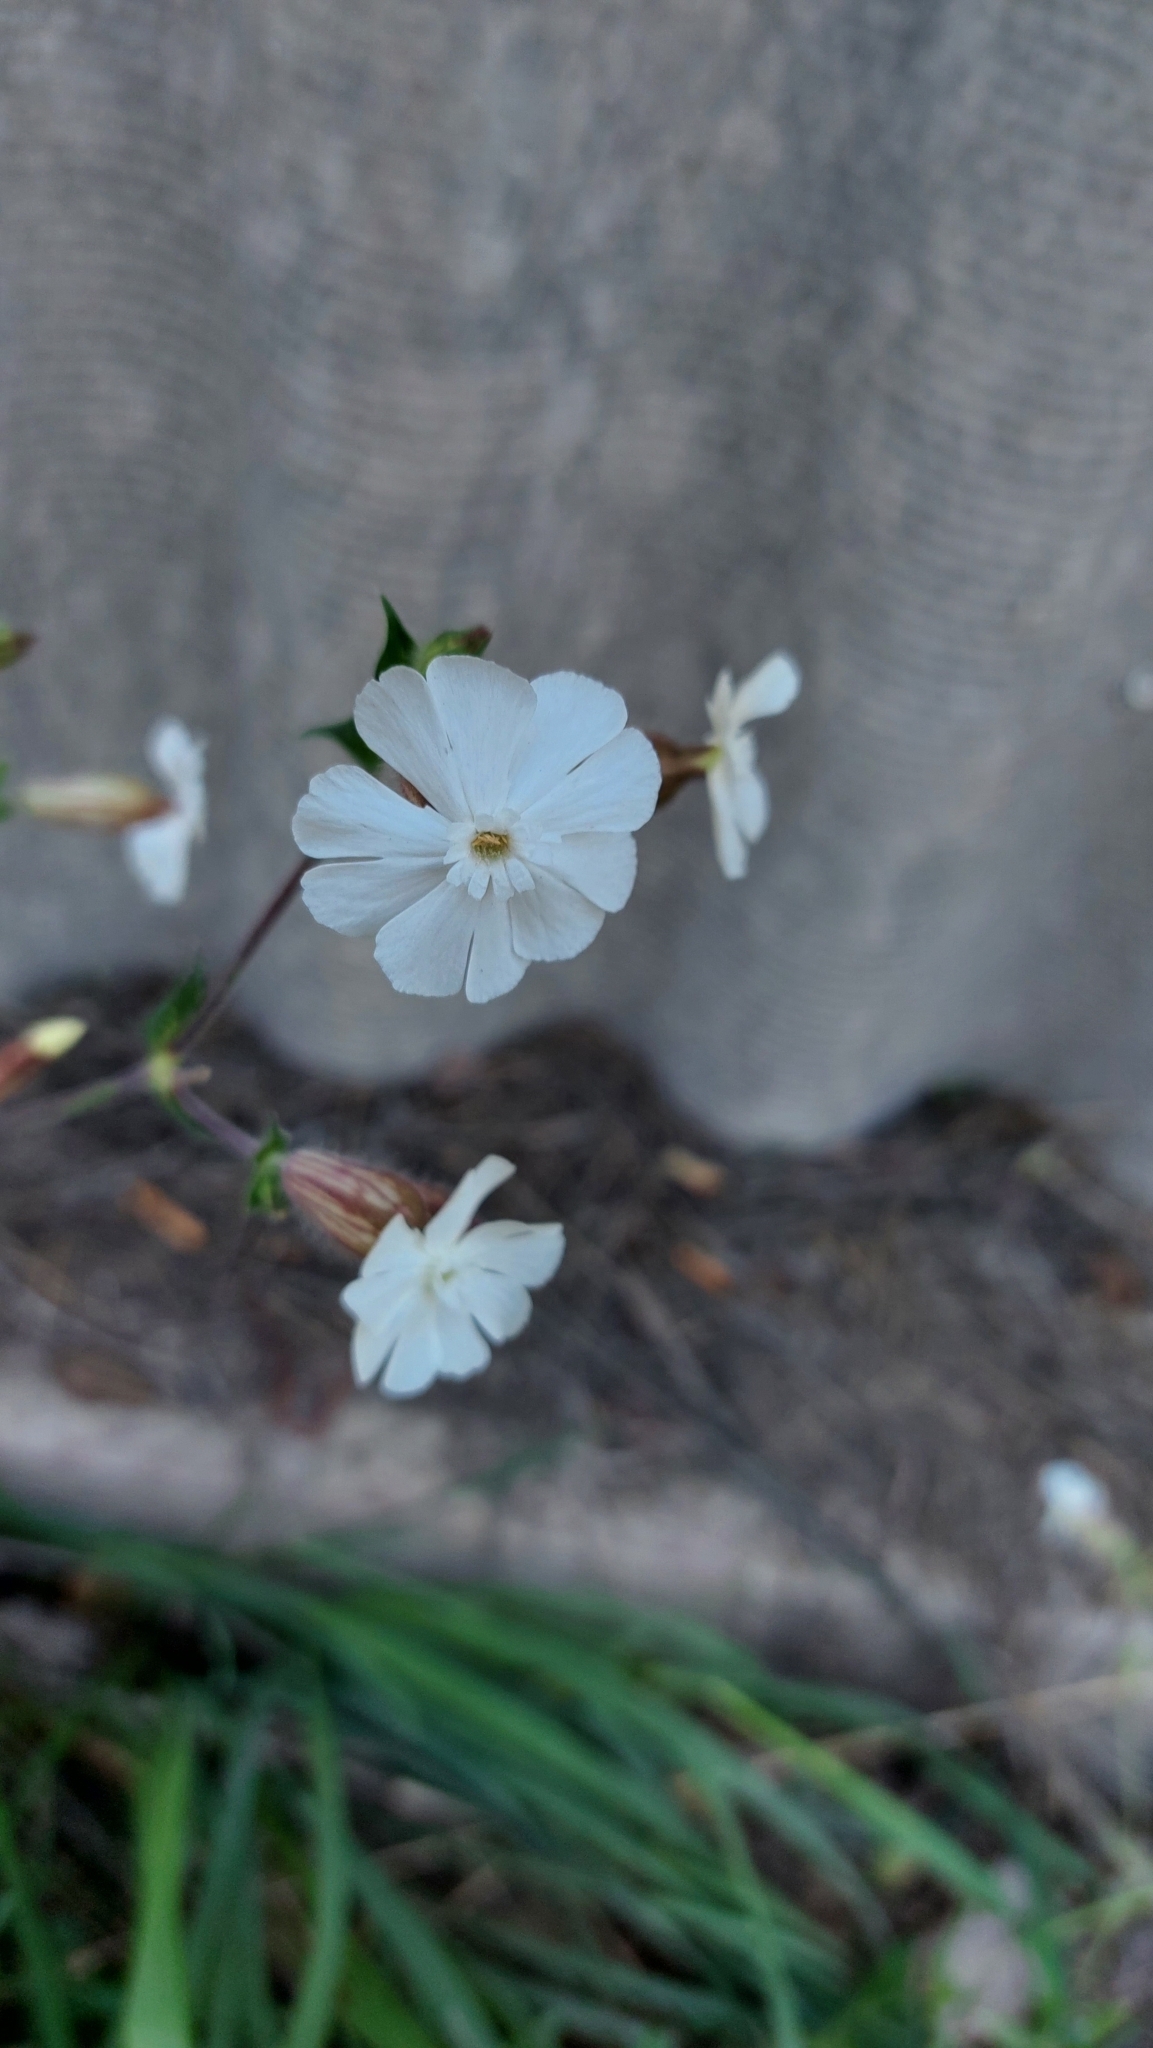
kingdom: Plantae
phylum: Tracheophyta
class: Magnoliopsida
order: Caryophyllales
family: Caryophyllaceae
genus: Silene
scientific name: Silene latifolia
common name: White campion
